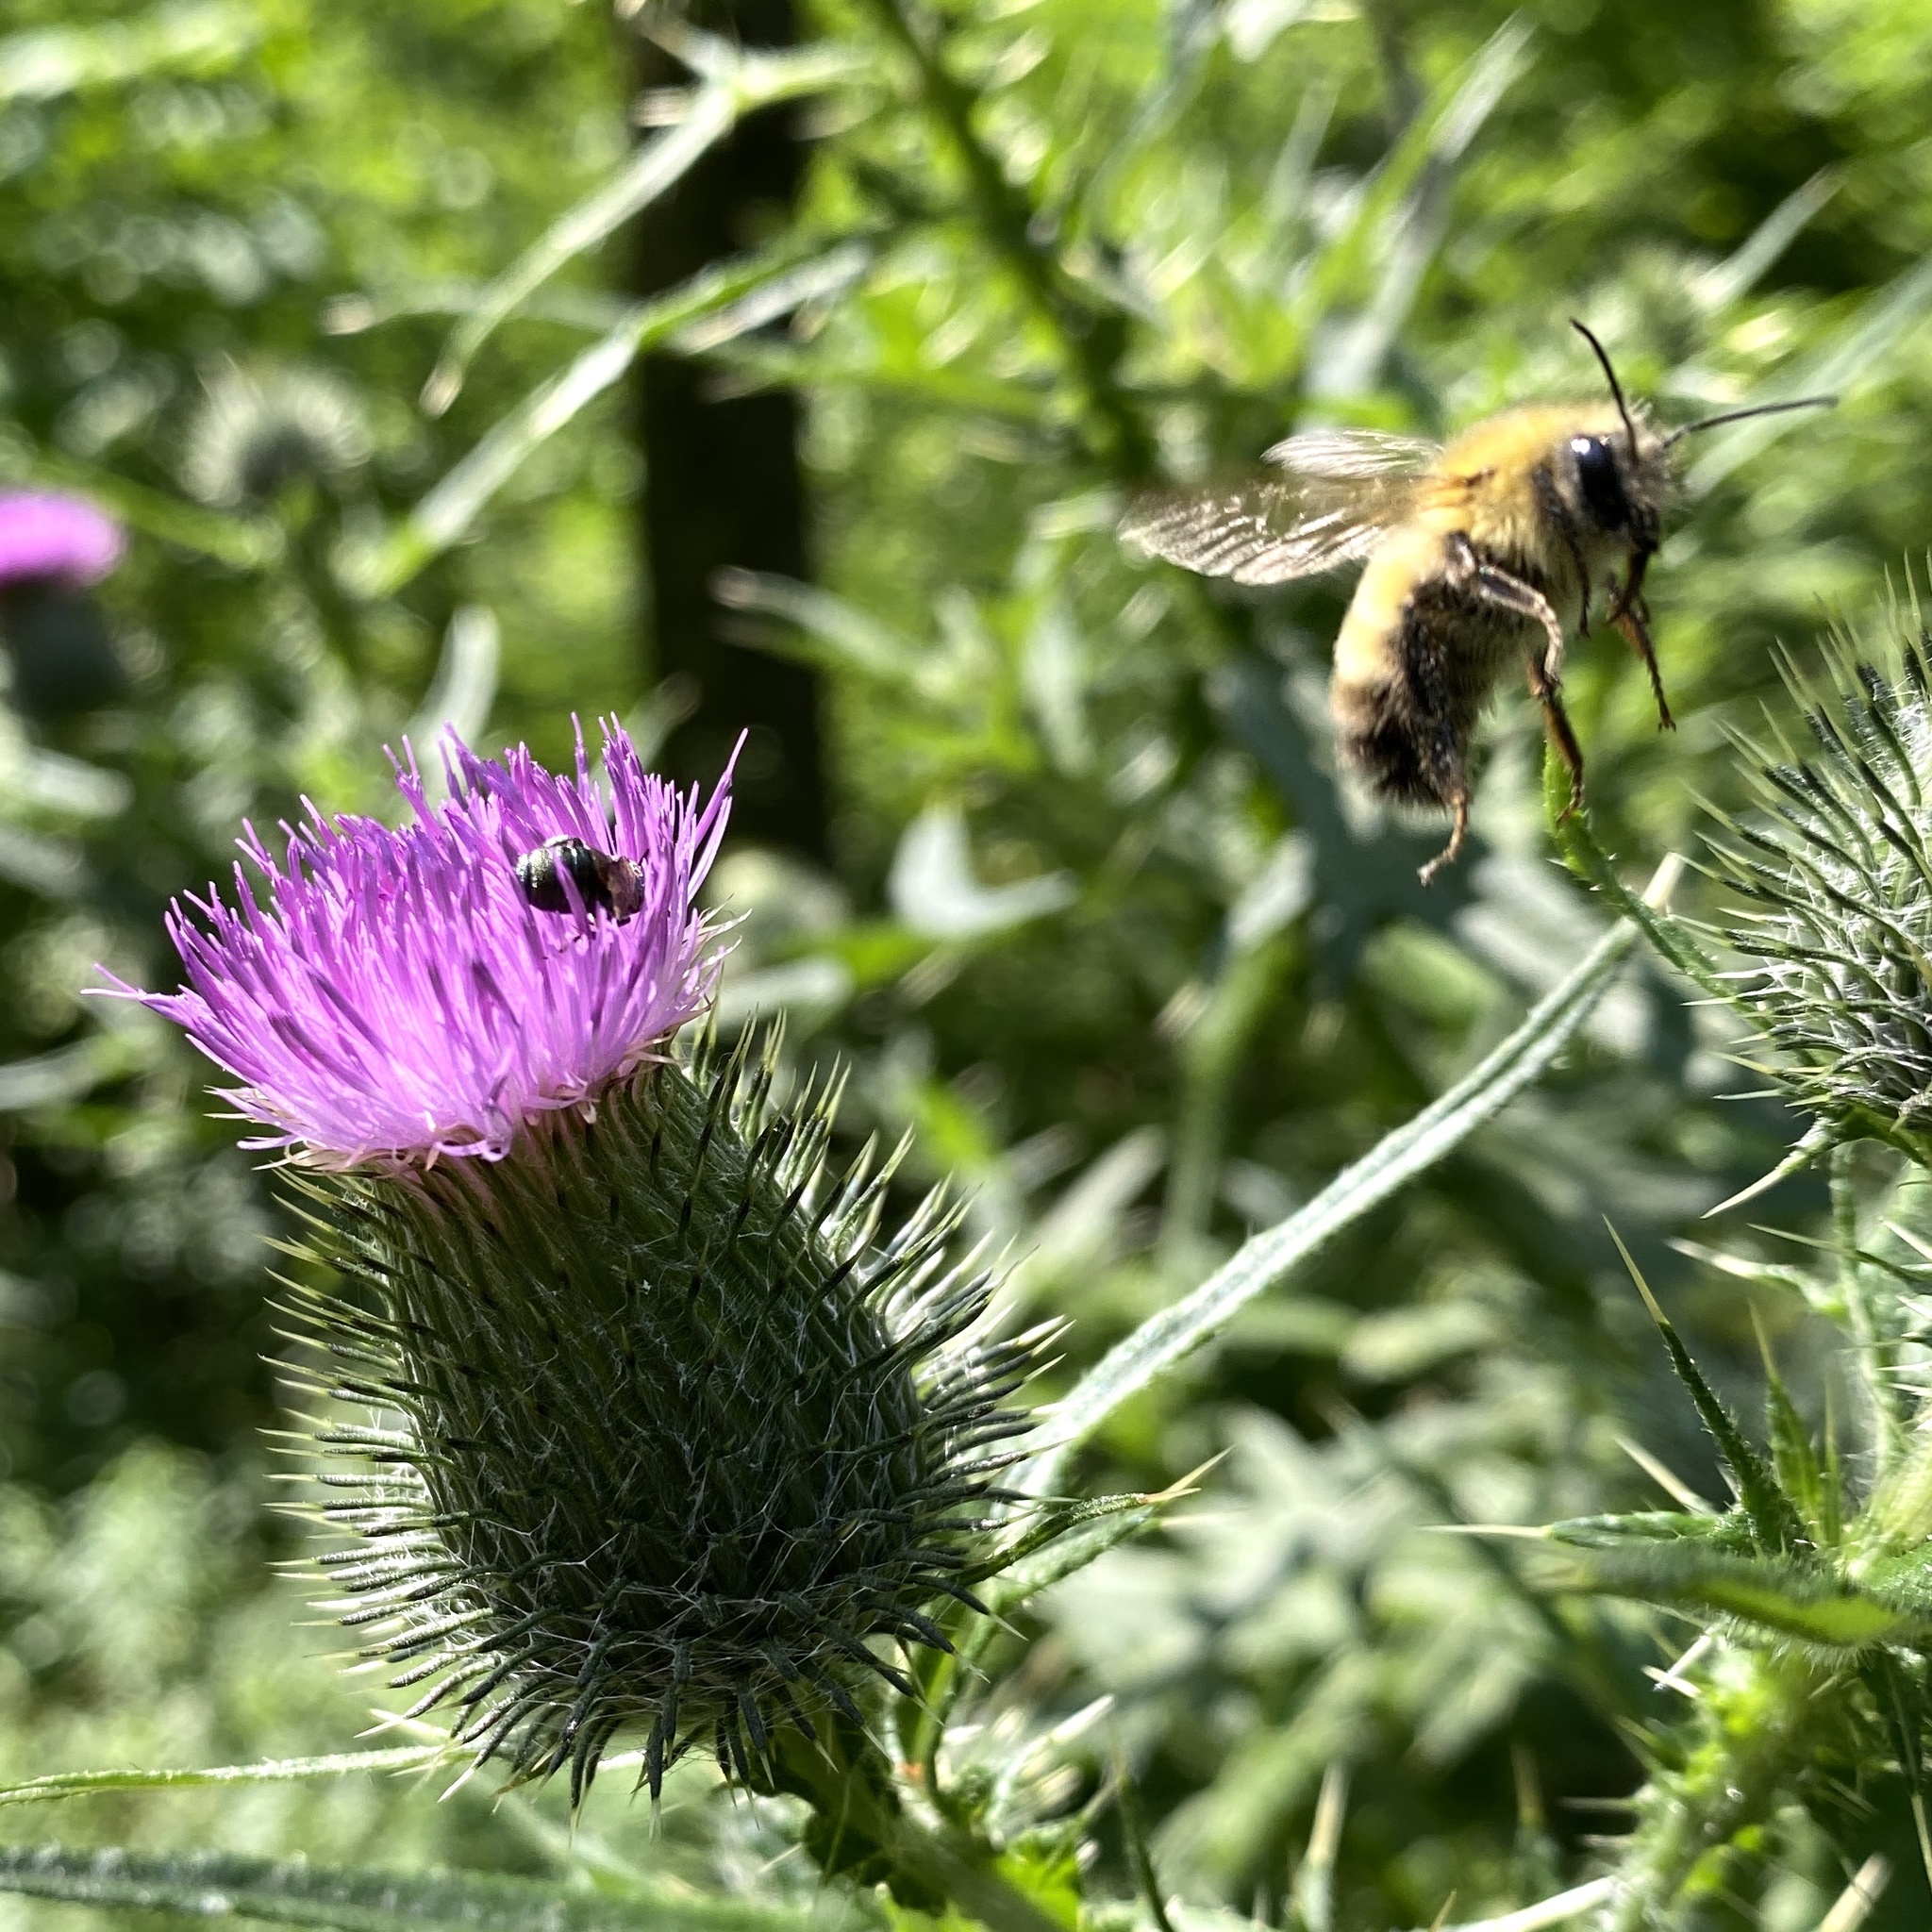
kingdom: Animalia
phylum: Arthropoda
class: Insecta
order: Hymenoptera
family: Apidae
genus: Bombus
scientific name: Bombus perplexus
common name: Confusing bumble bee
